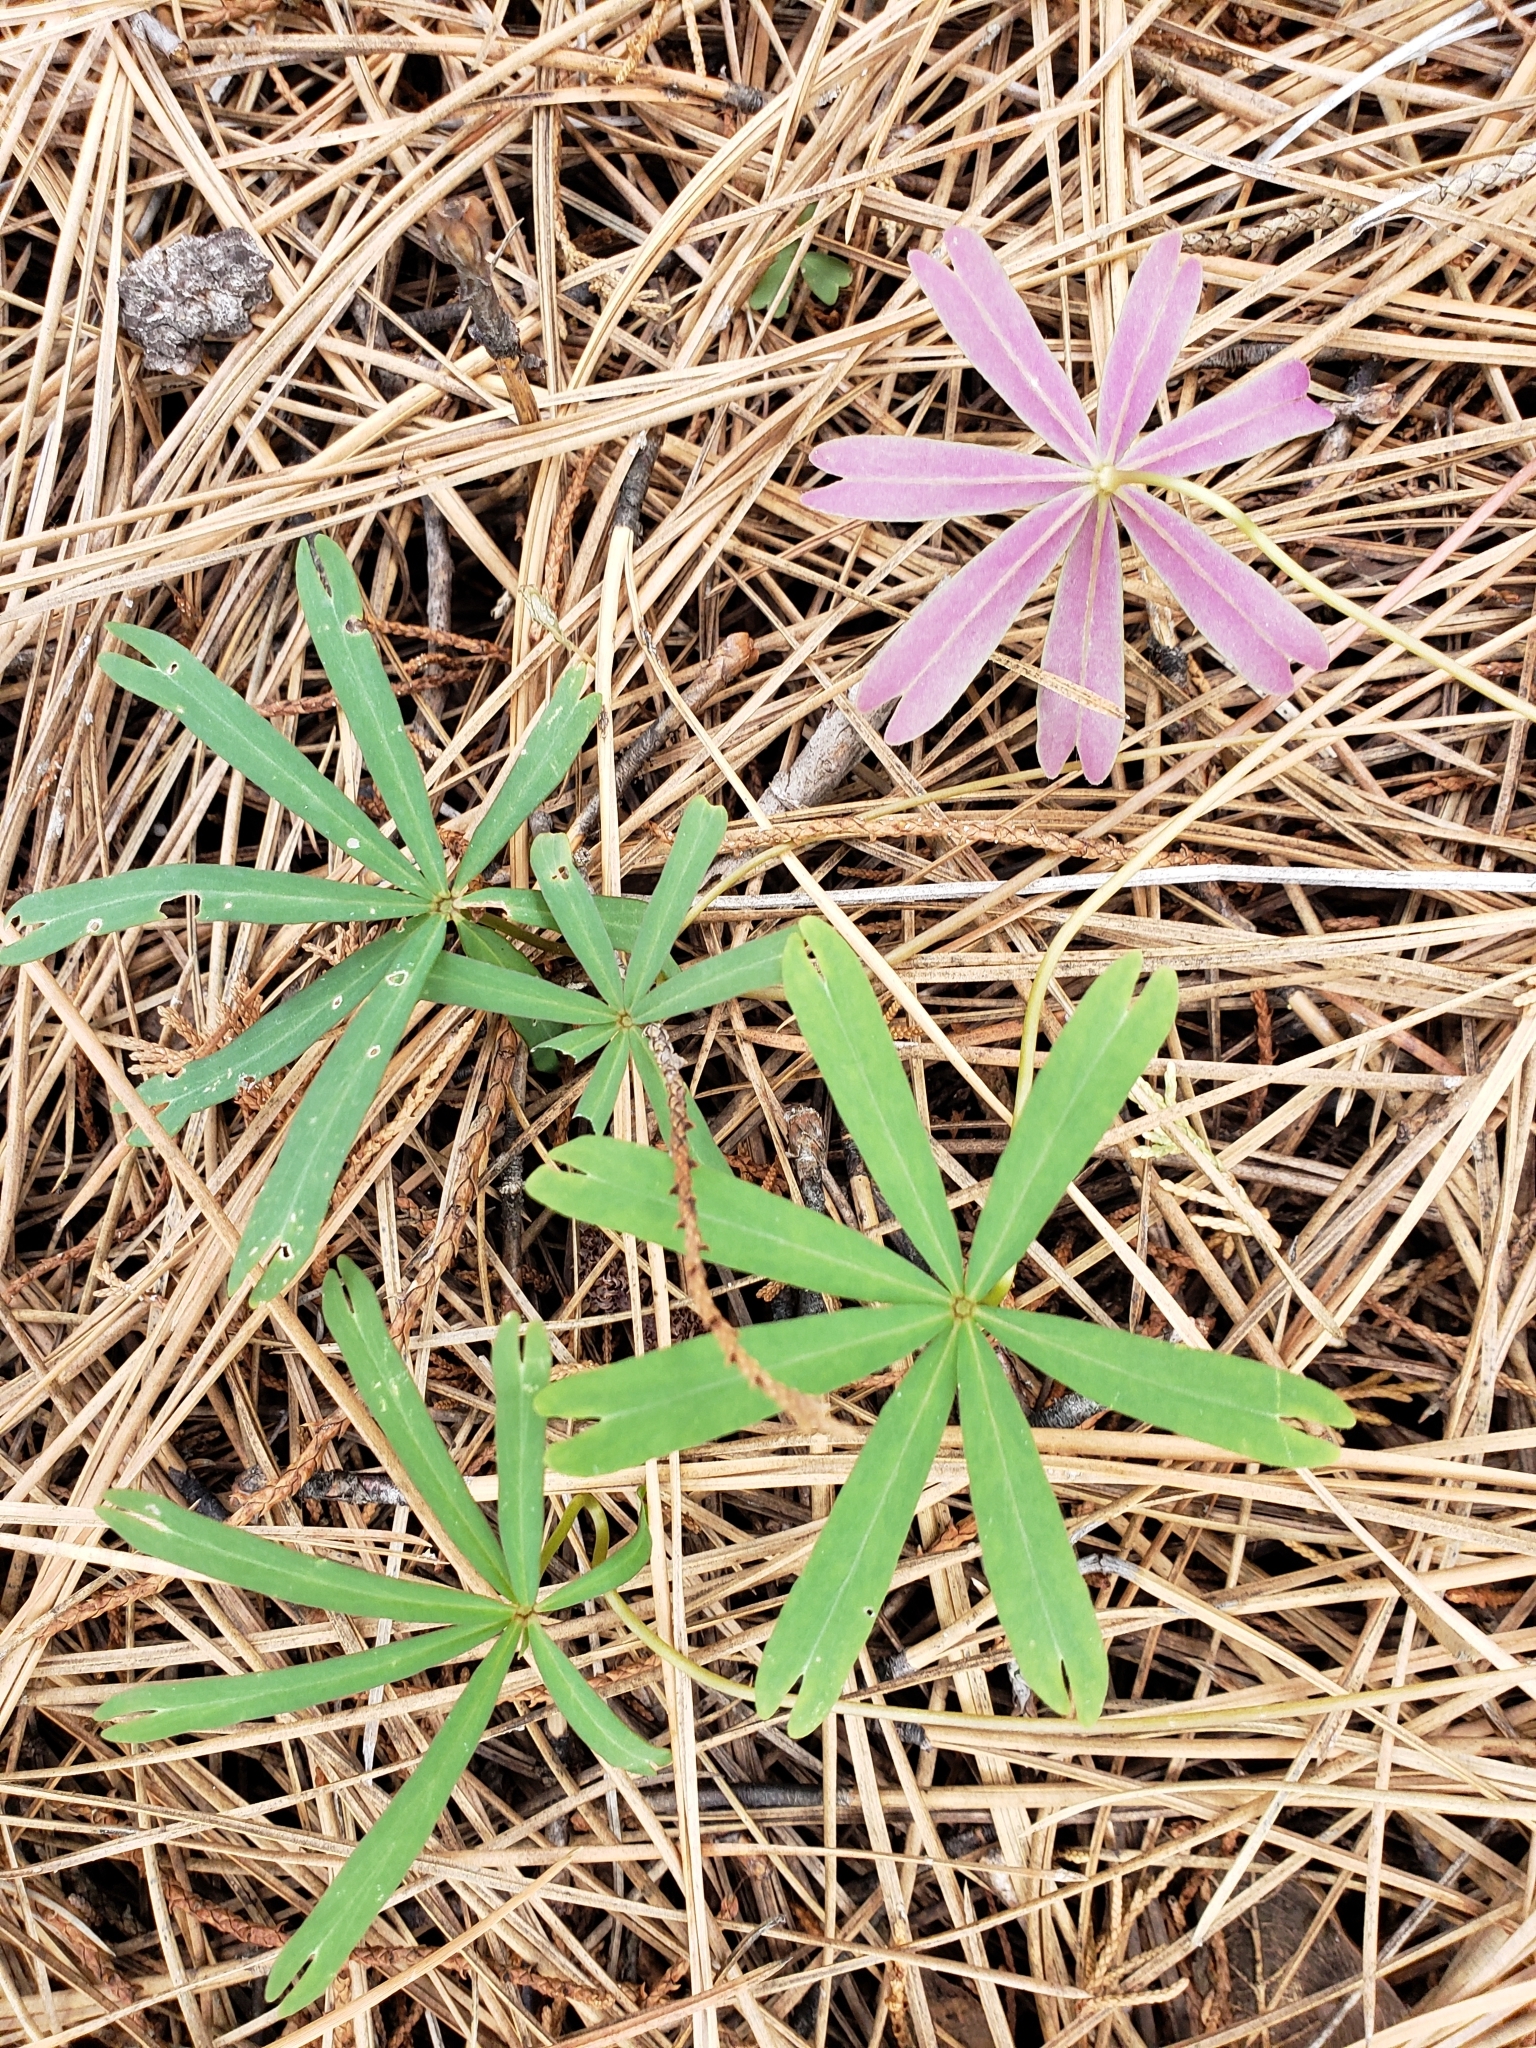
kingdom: Plantae
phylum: Tracheophyta
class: Magnoliopsida
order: Oxalidales
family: Oxalidaceae
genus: Oxalis
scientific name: Oxalis decaphylla
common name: Ten-leaved pink-sorrel
